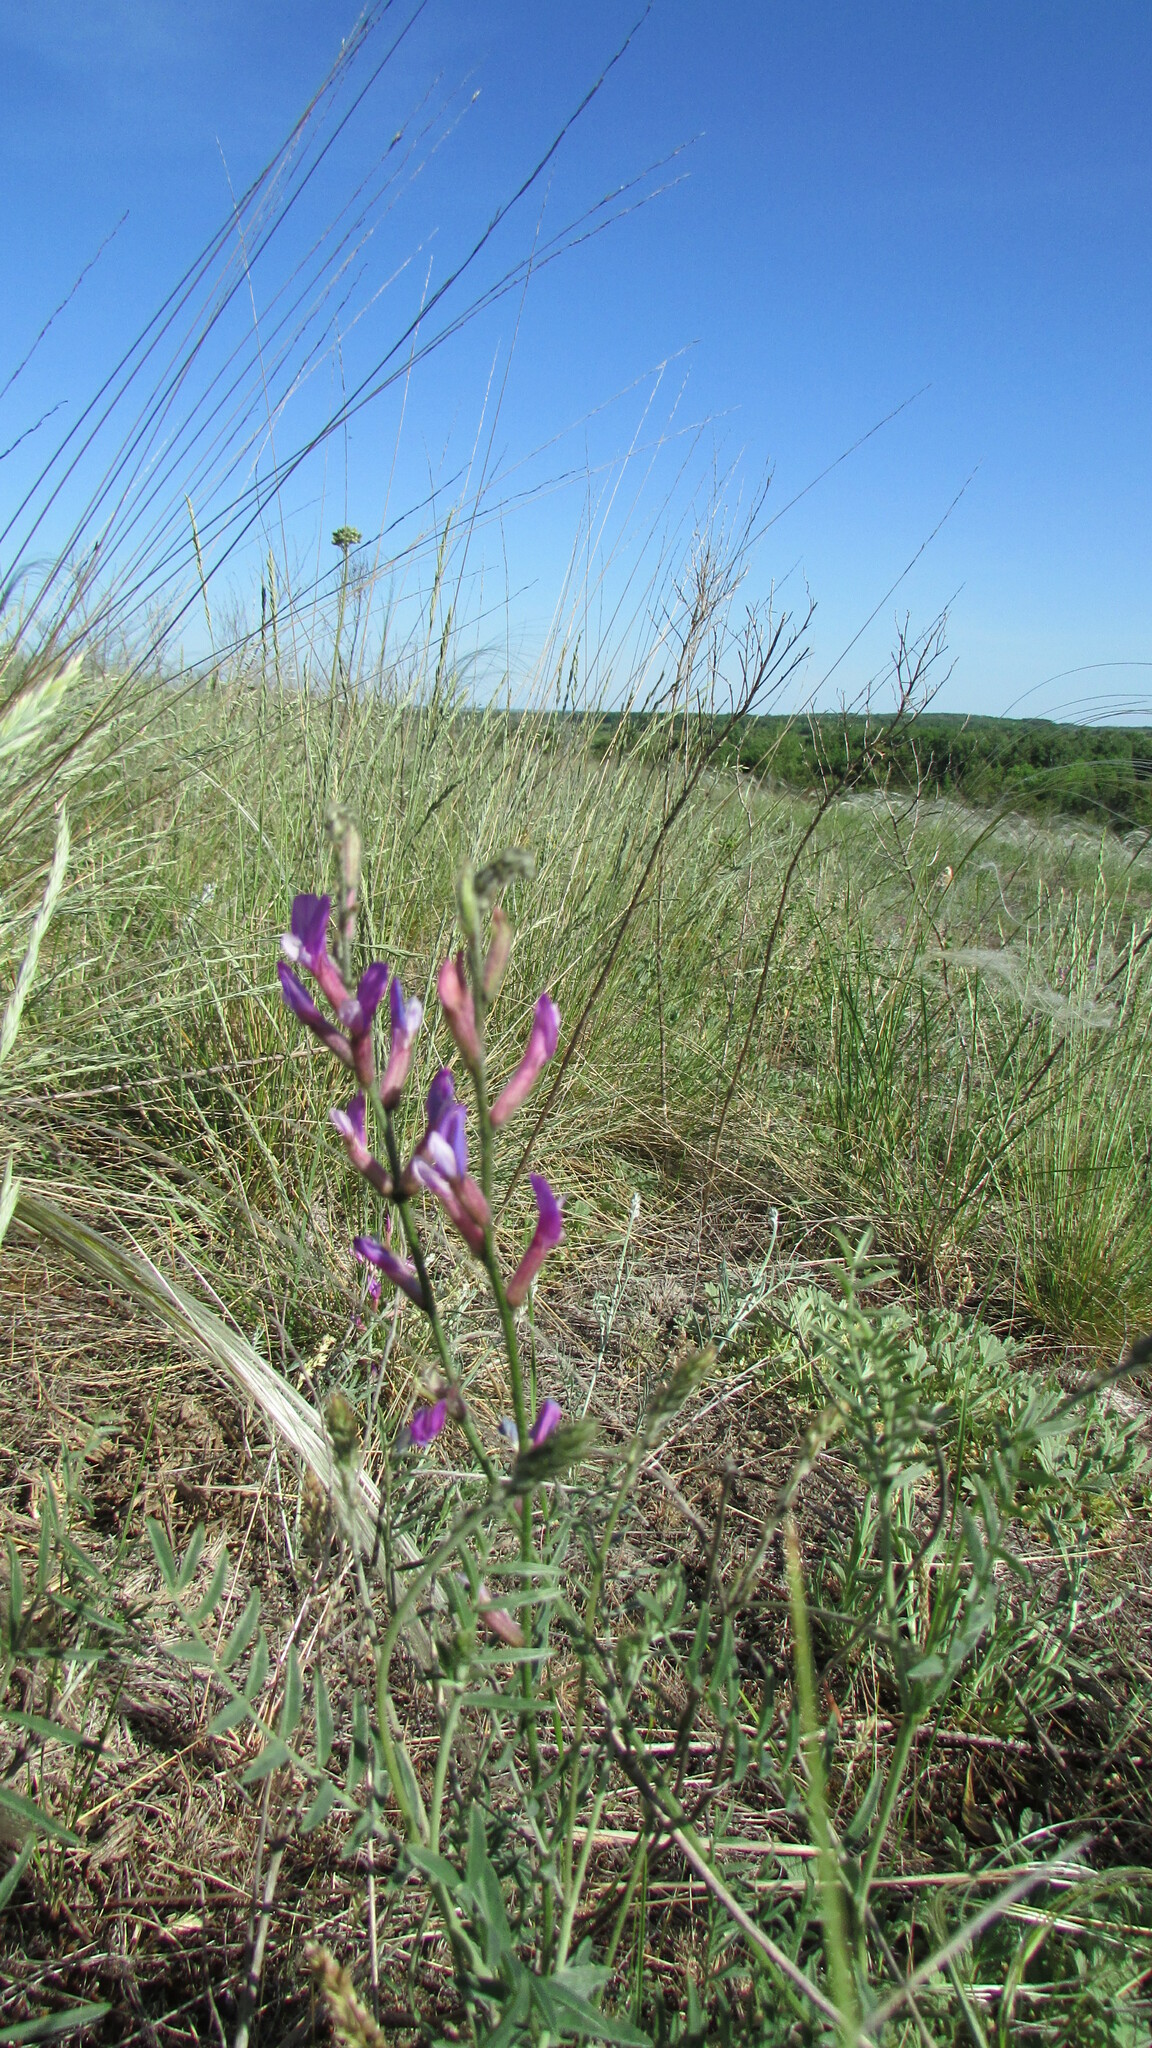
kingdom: Plantae
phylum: Tracheophyta
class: Magnoliopsida
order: Fabales
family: Fabaceae
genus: Astragalus
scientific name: Astragalus varius
